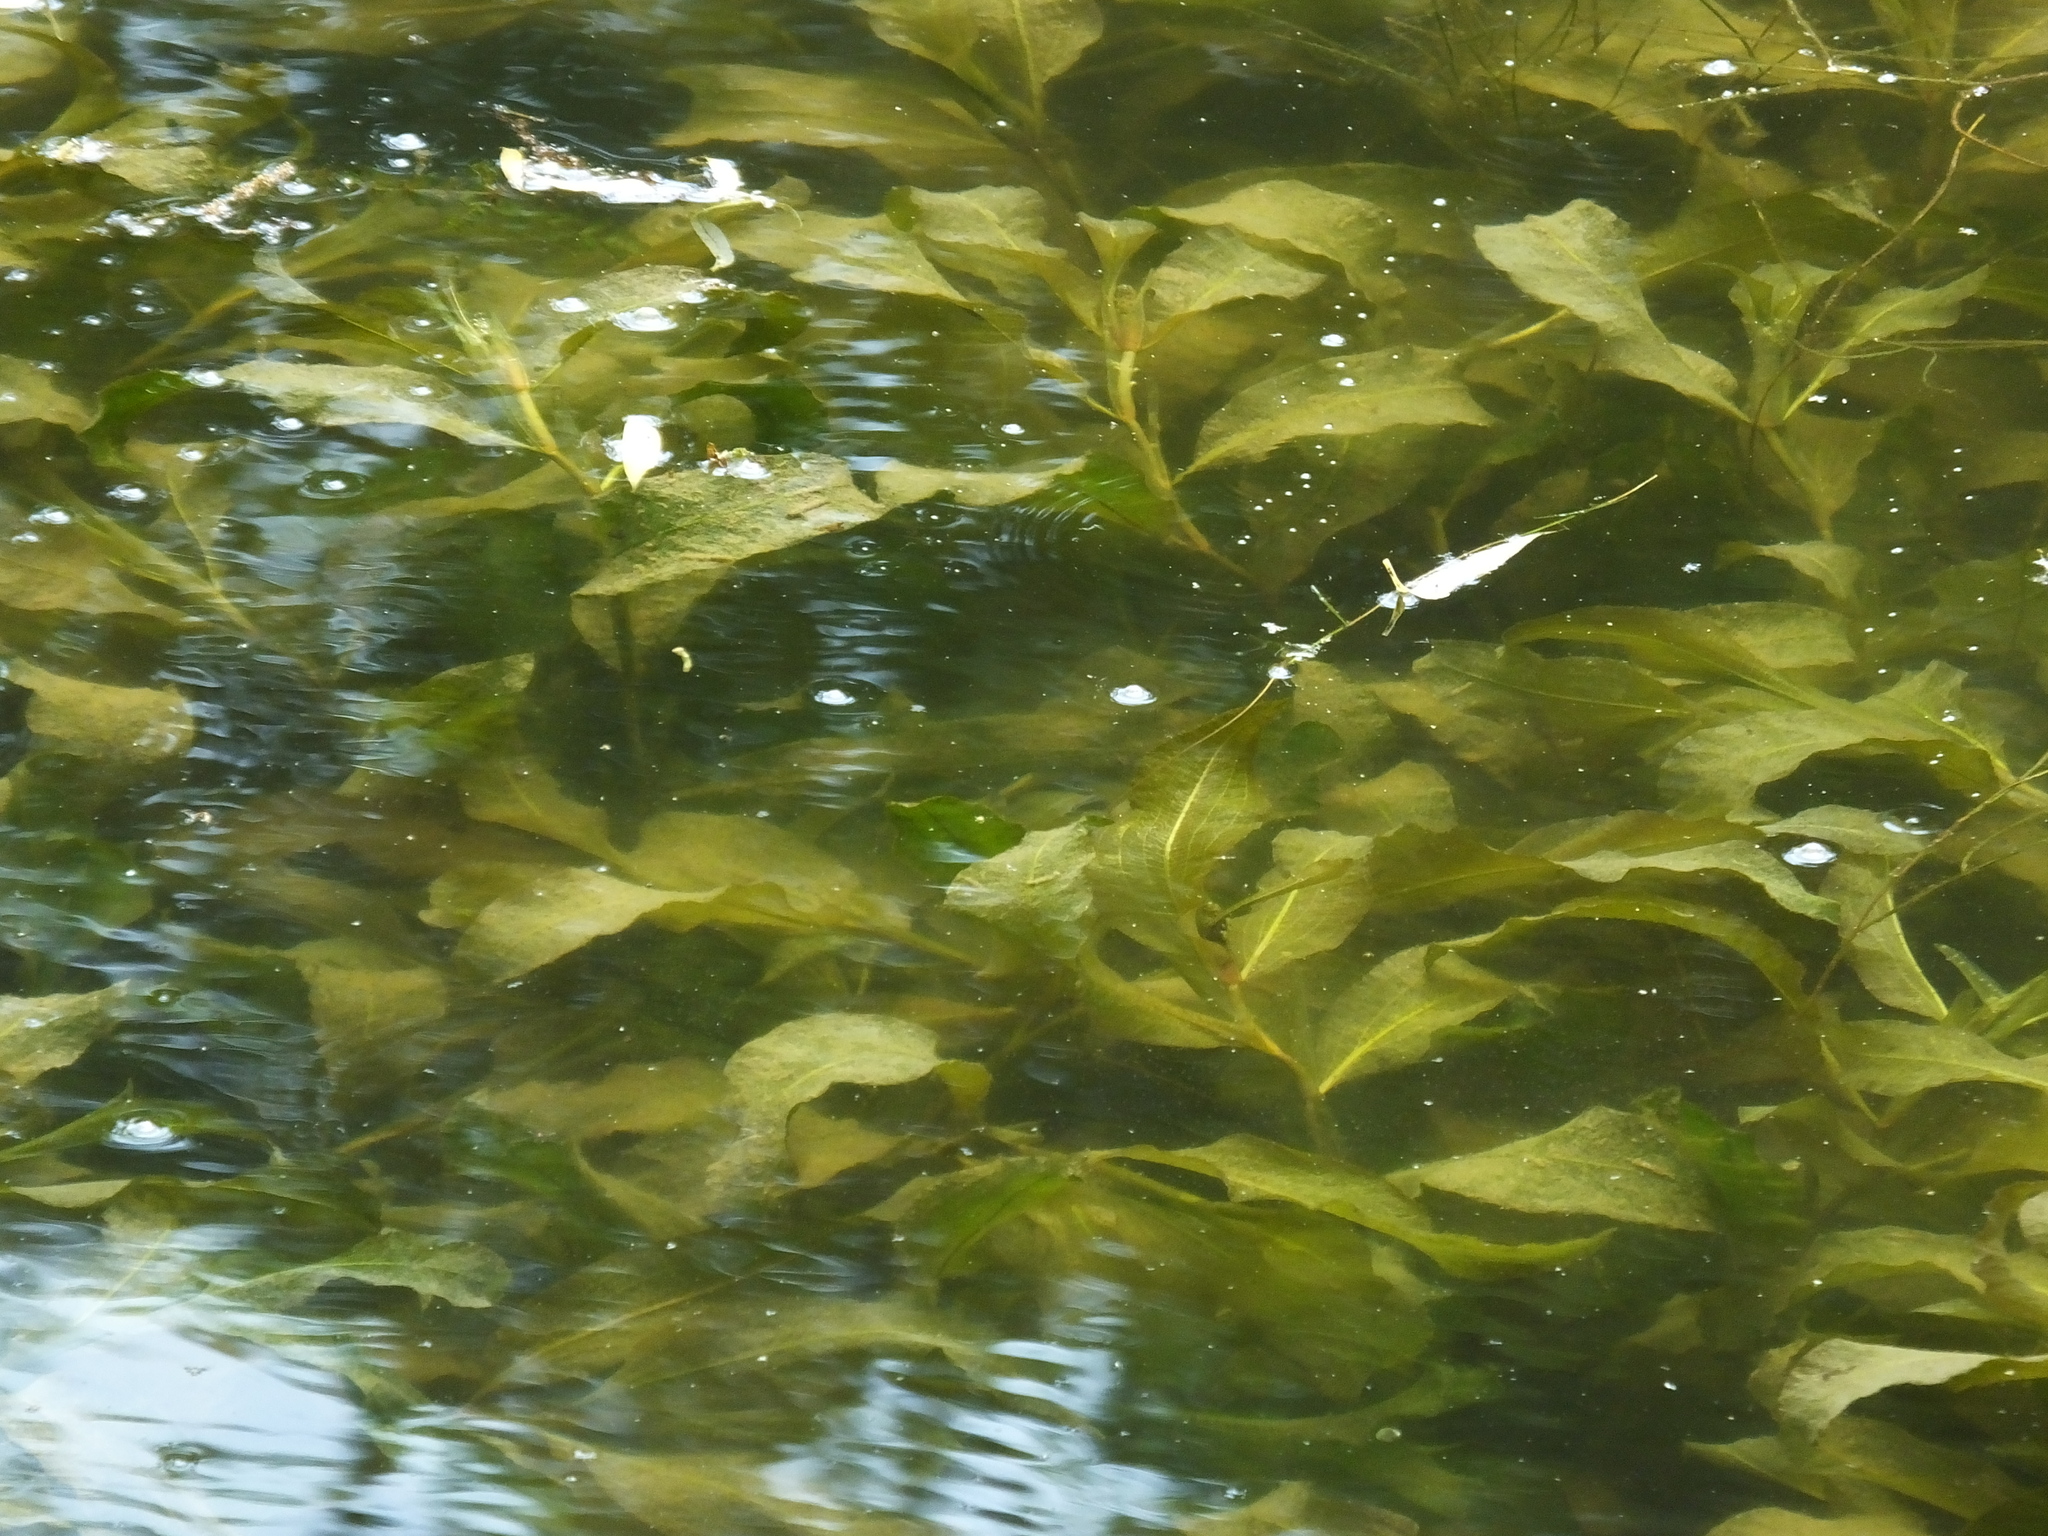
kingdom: Plantae
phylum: Tracheophyta
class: Liliopsida
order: Alismatales
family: Potamogetonaceae
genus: Potamogeton
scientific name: Potamogeton lucens
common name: Shining pondweed
